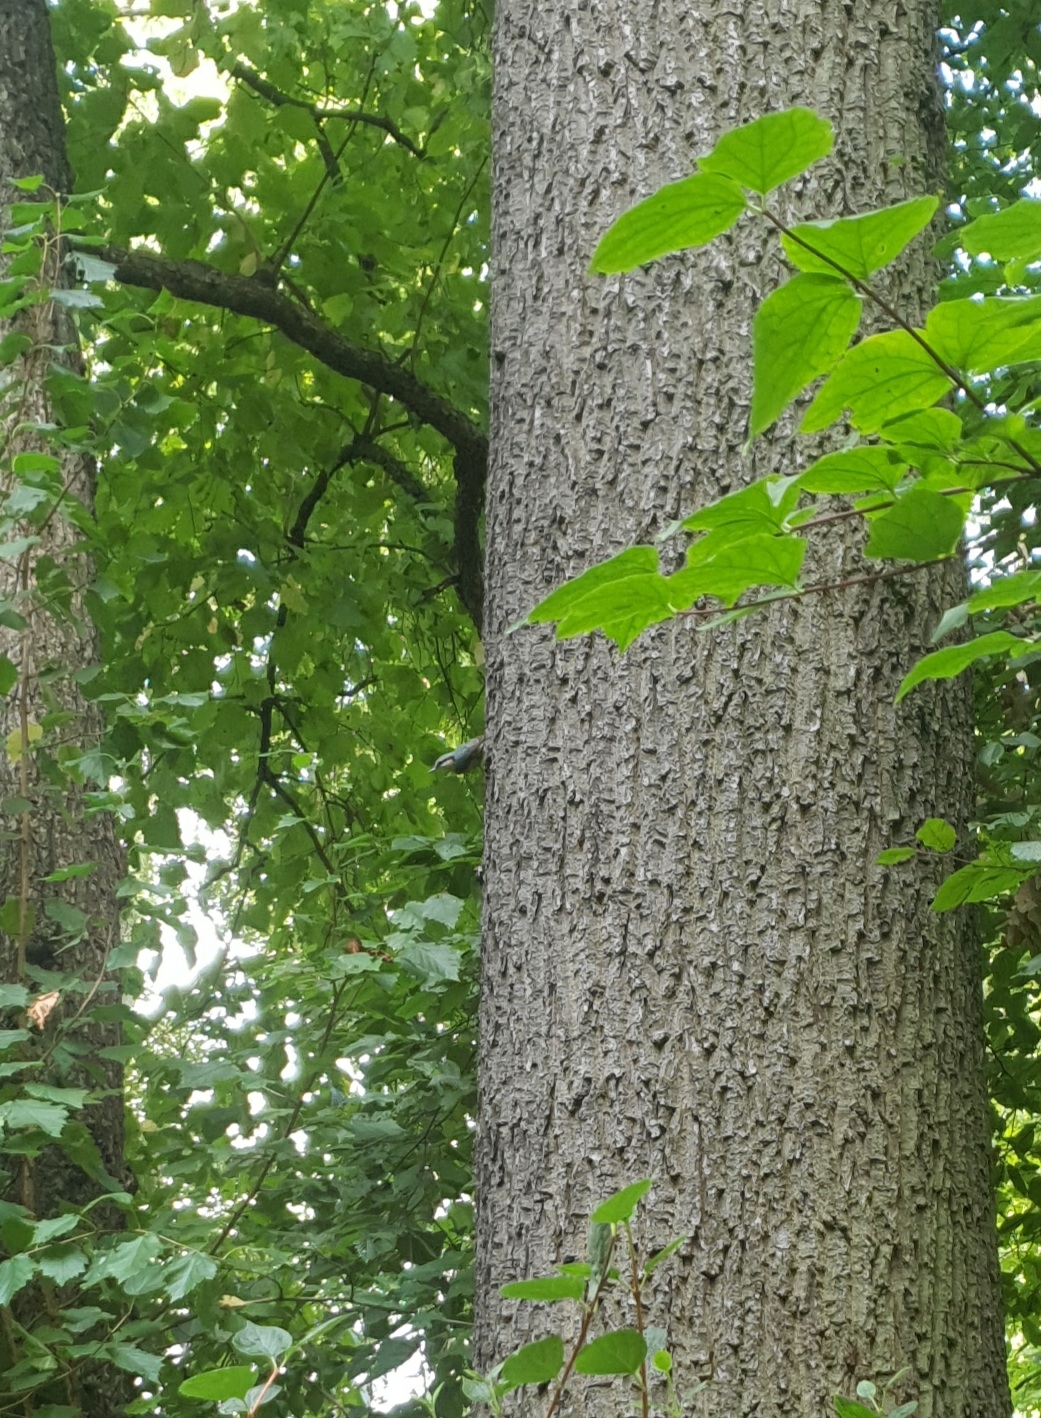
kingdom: Animalia
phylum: Chordata
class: Aves
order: Passeriformes
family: Sittidae
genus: Sitta
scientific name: Sitta europaea
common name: Eurasian nuthatch
